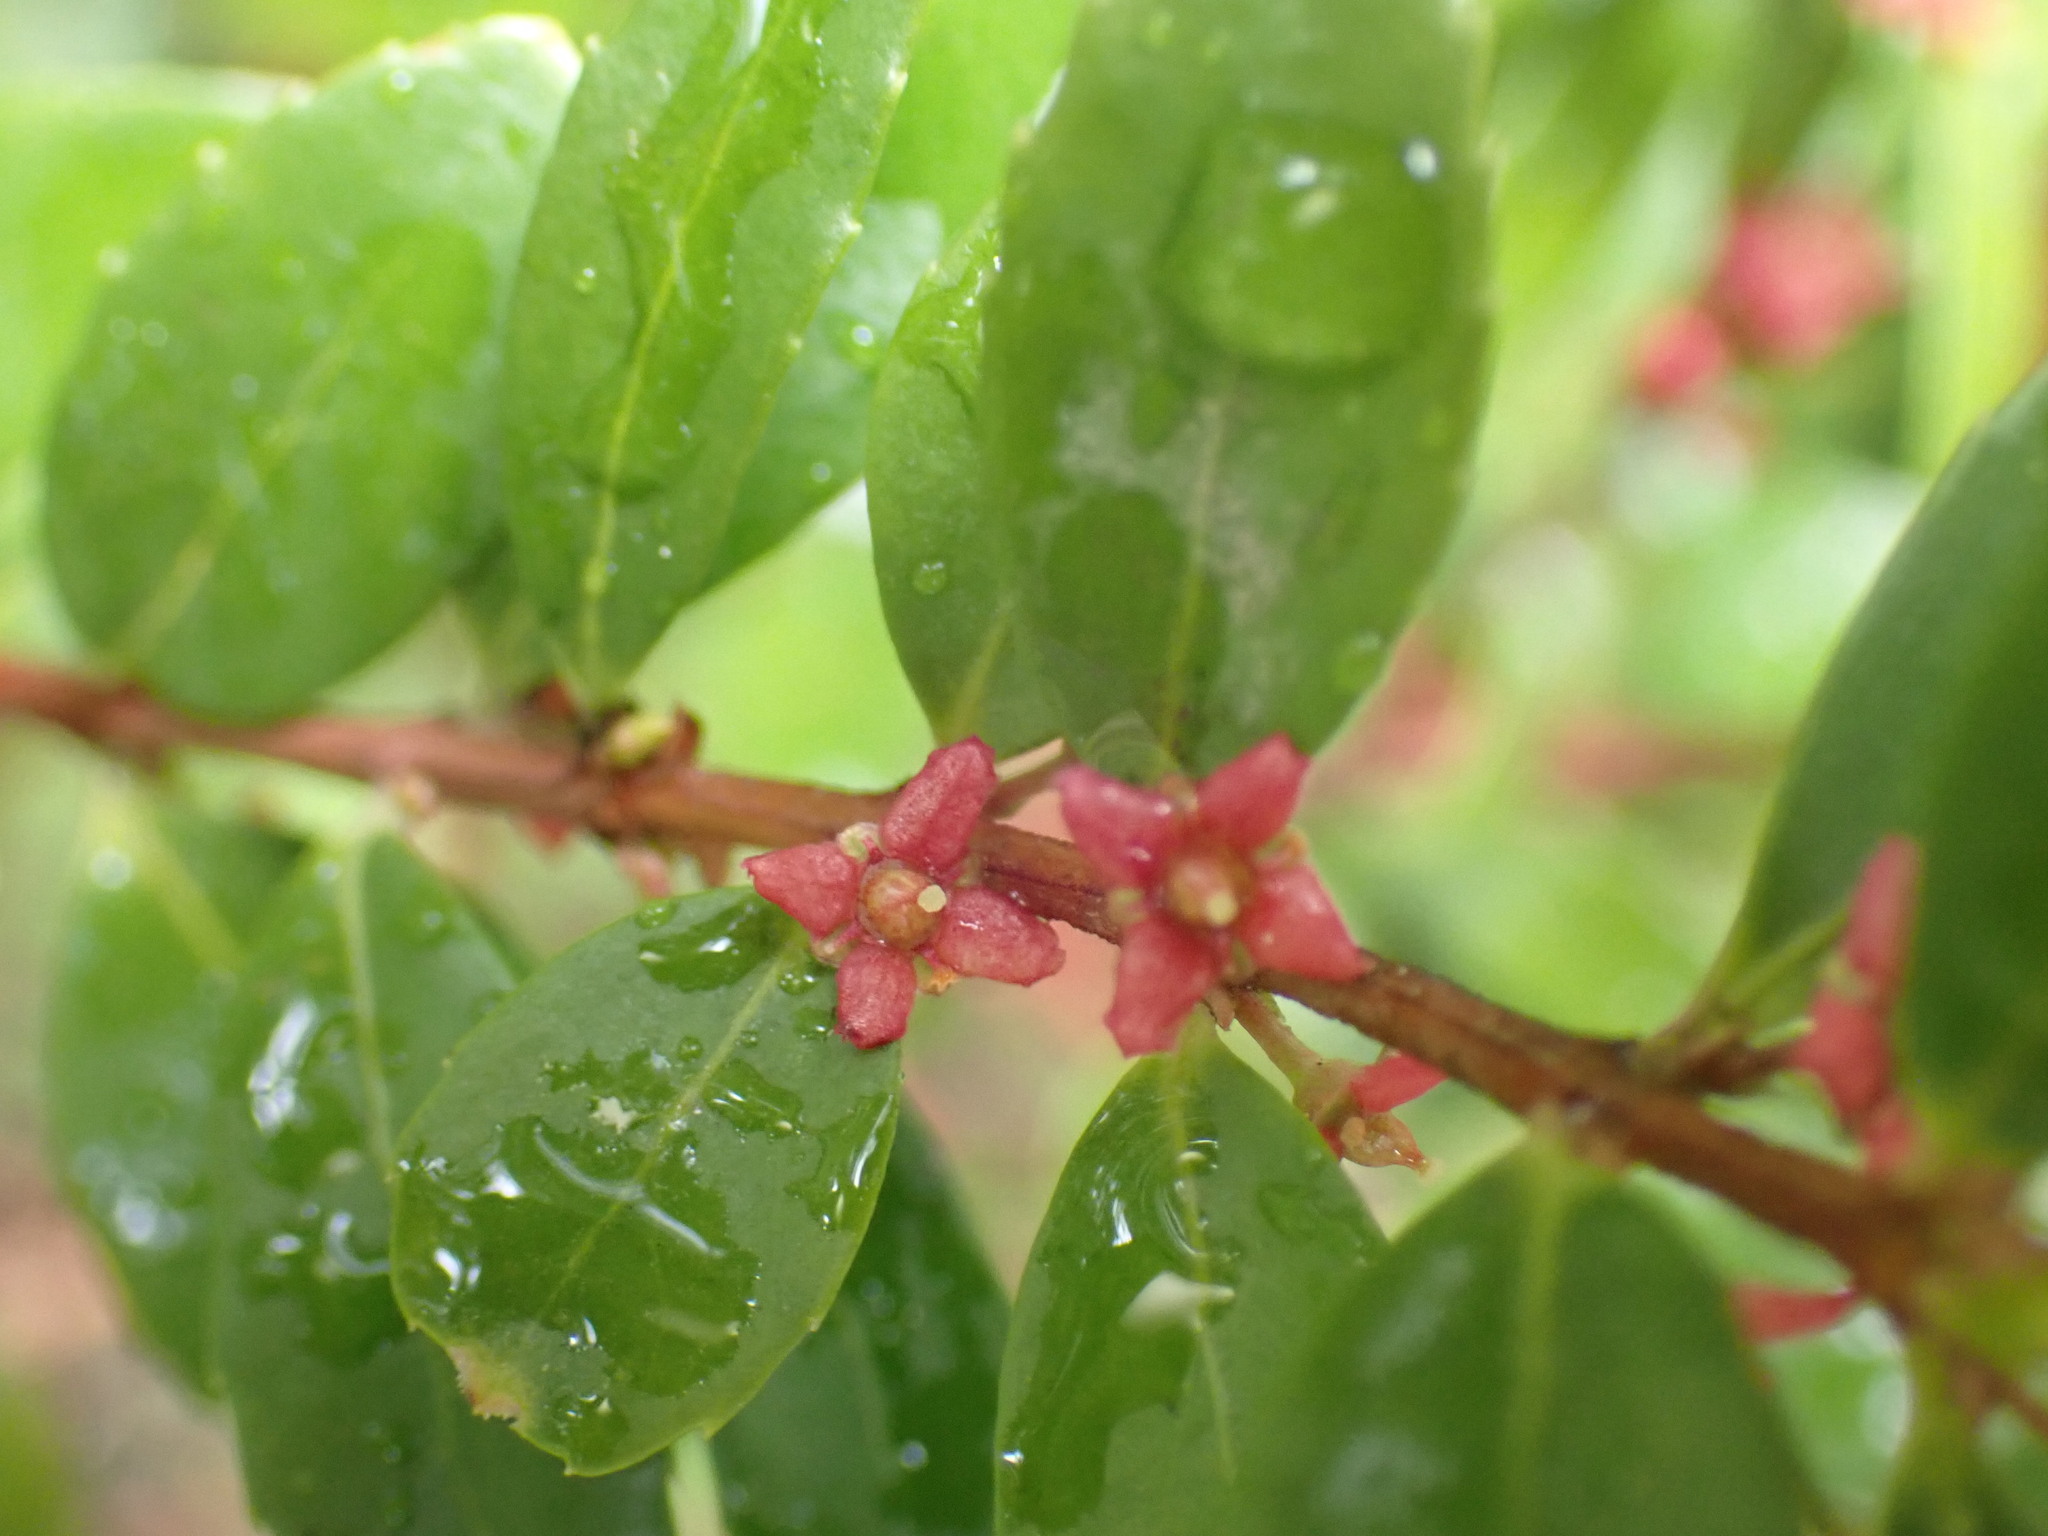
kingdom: Plantae
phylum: Tracheophyta
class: Magnoliopsida
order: Celastrales
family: Celastraceae
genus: Paxistima
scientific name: Paxistima myrsinites
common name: Mountain-lover
